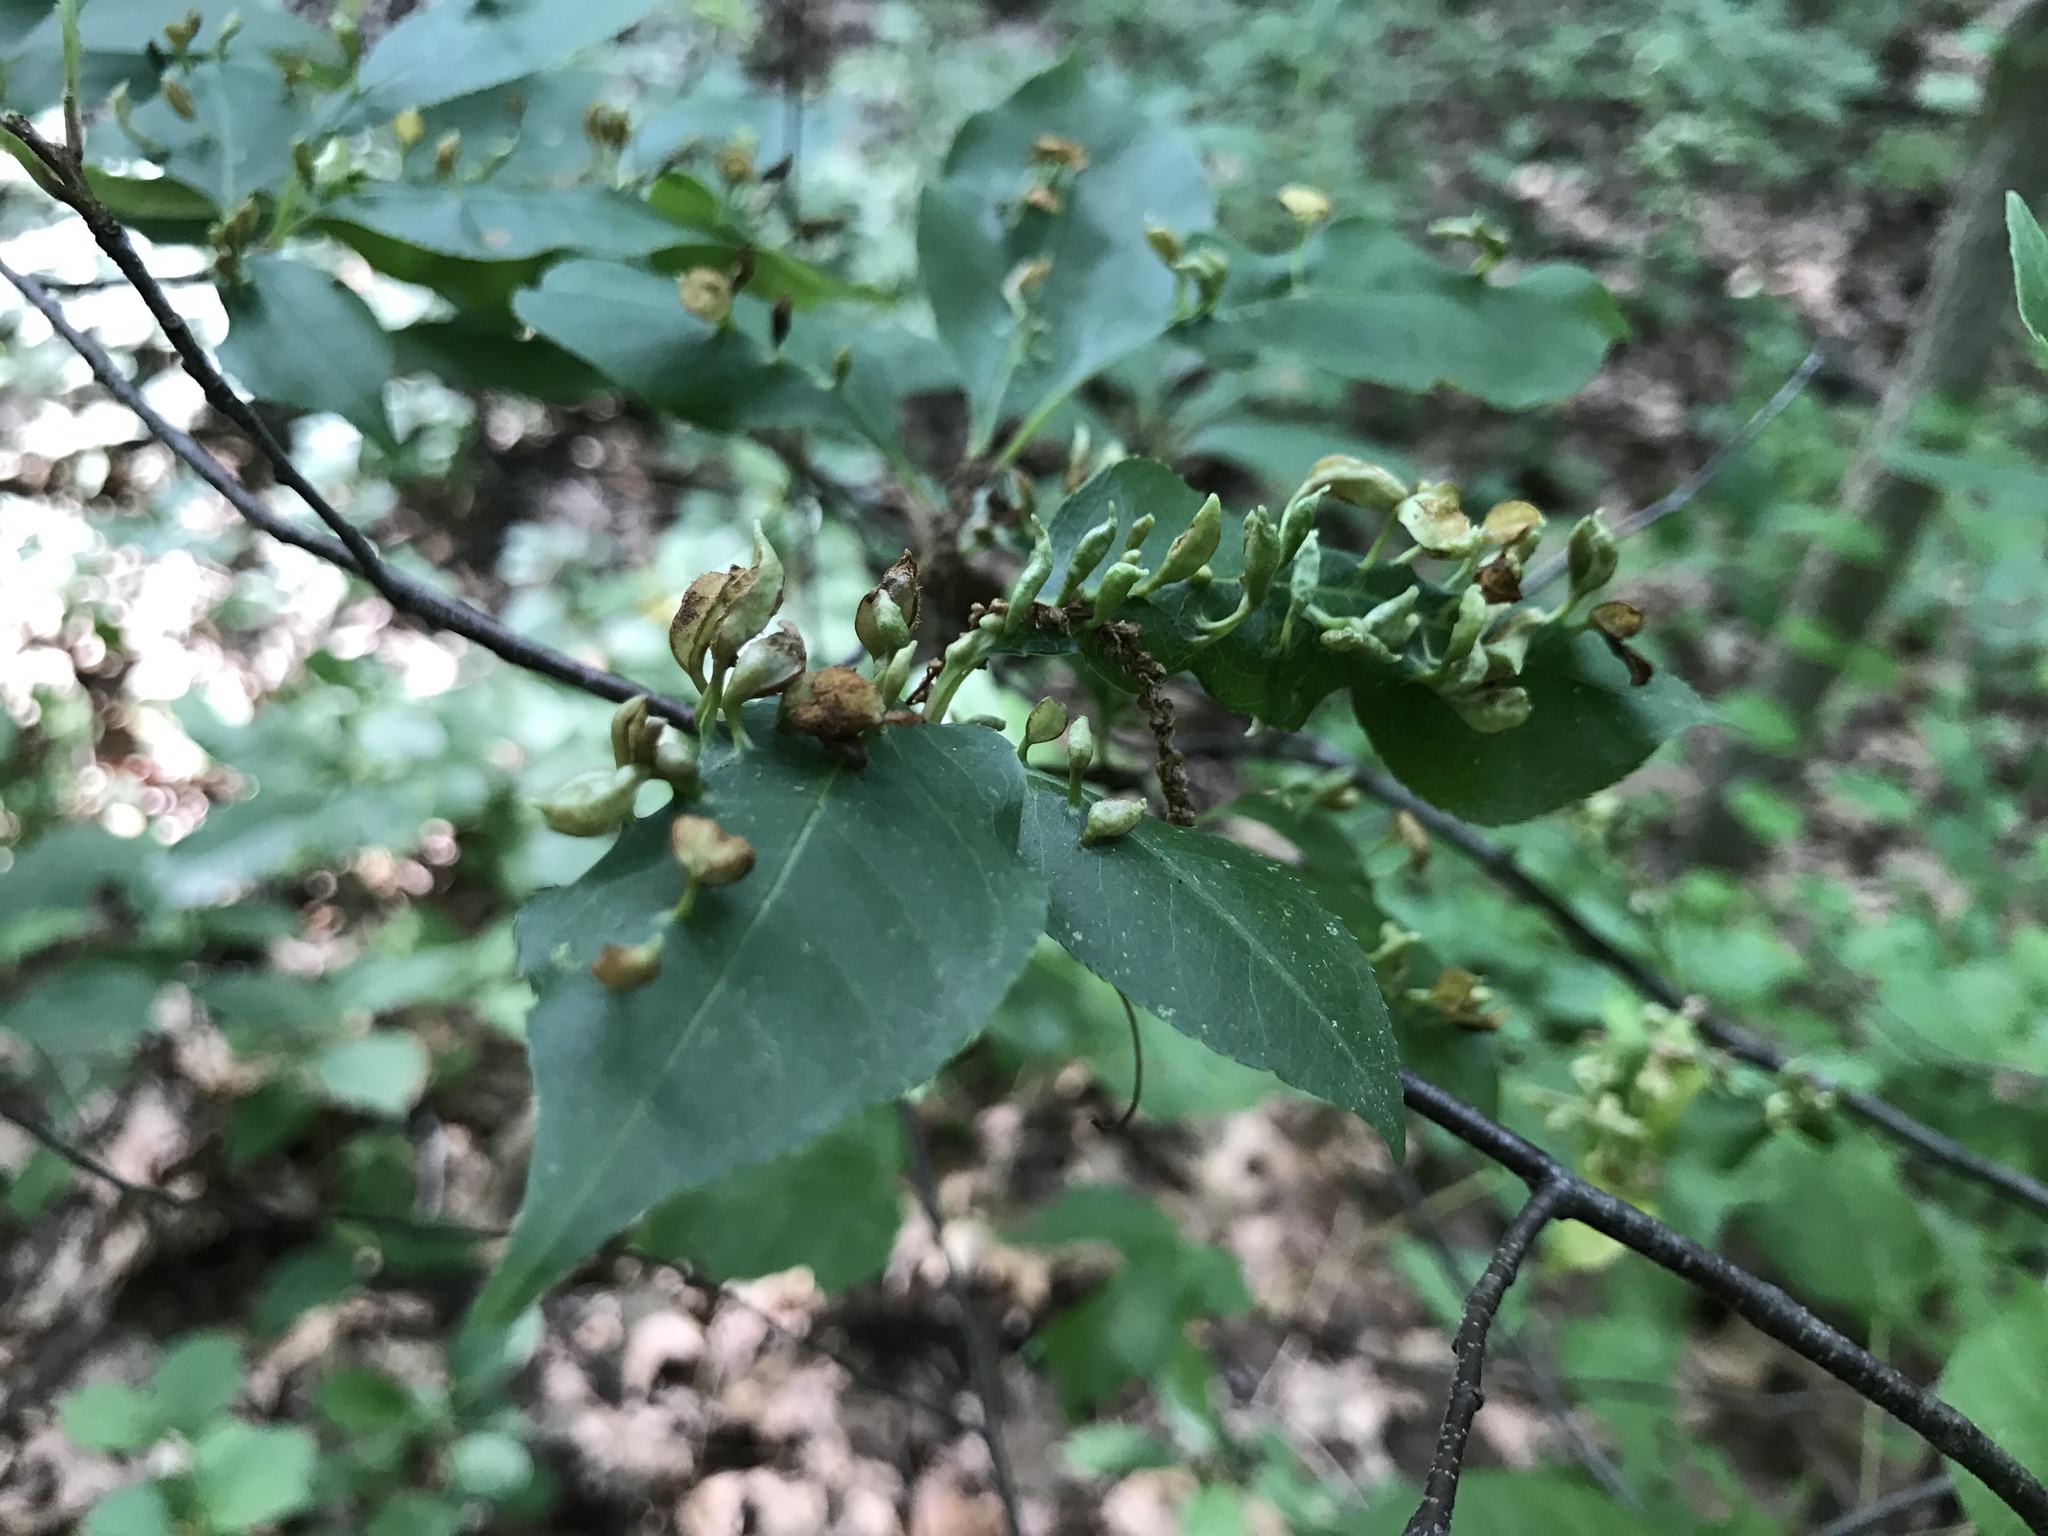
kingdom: Animalia
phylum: Arthropoda
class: Arachnida
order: Trombidiformes
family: Eriophyidae
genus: Eriophyes
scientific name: Eriophyes
